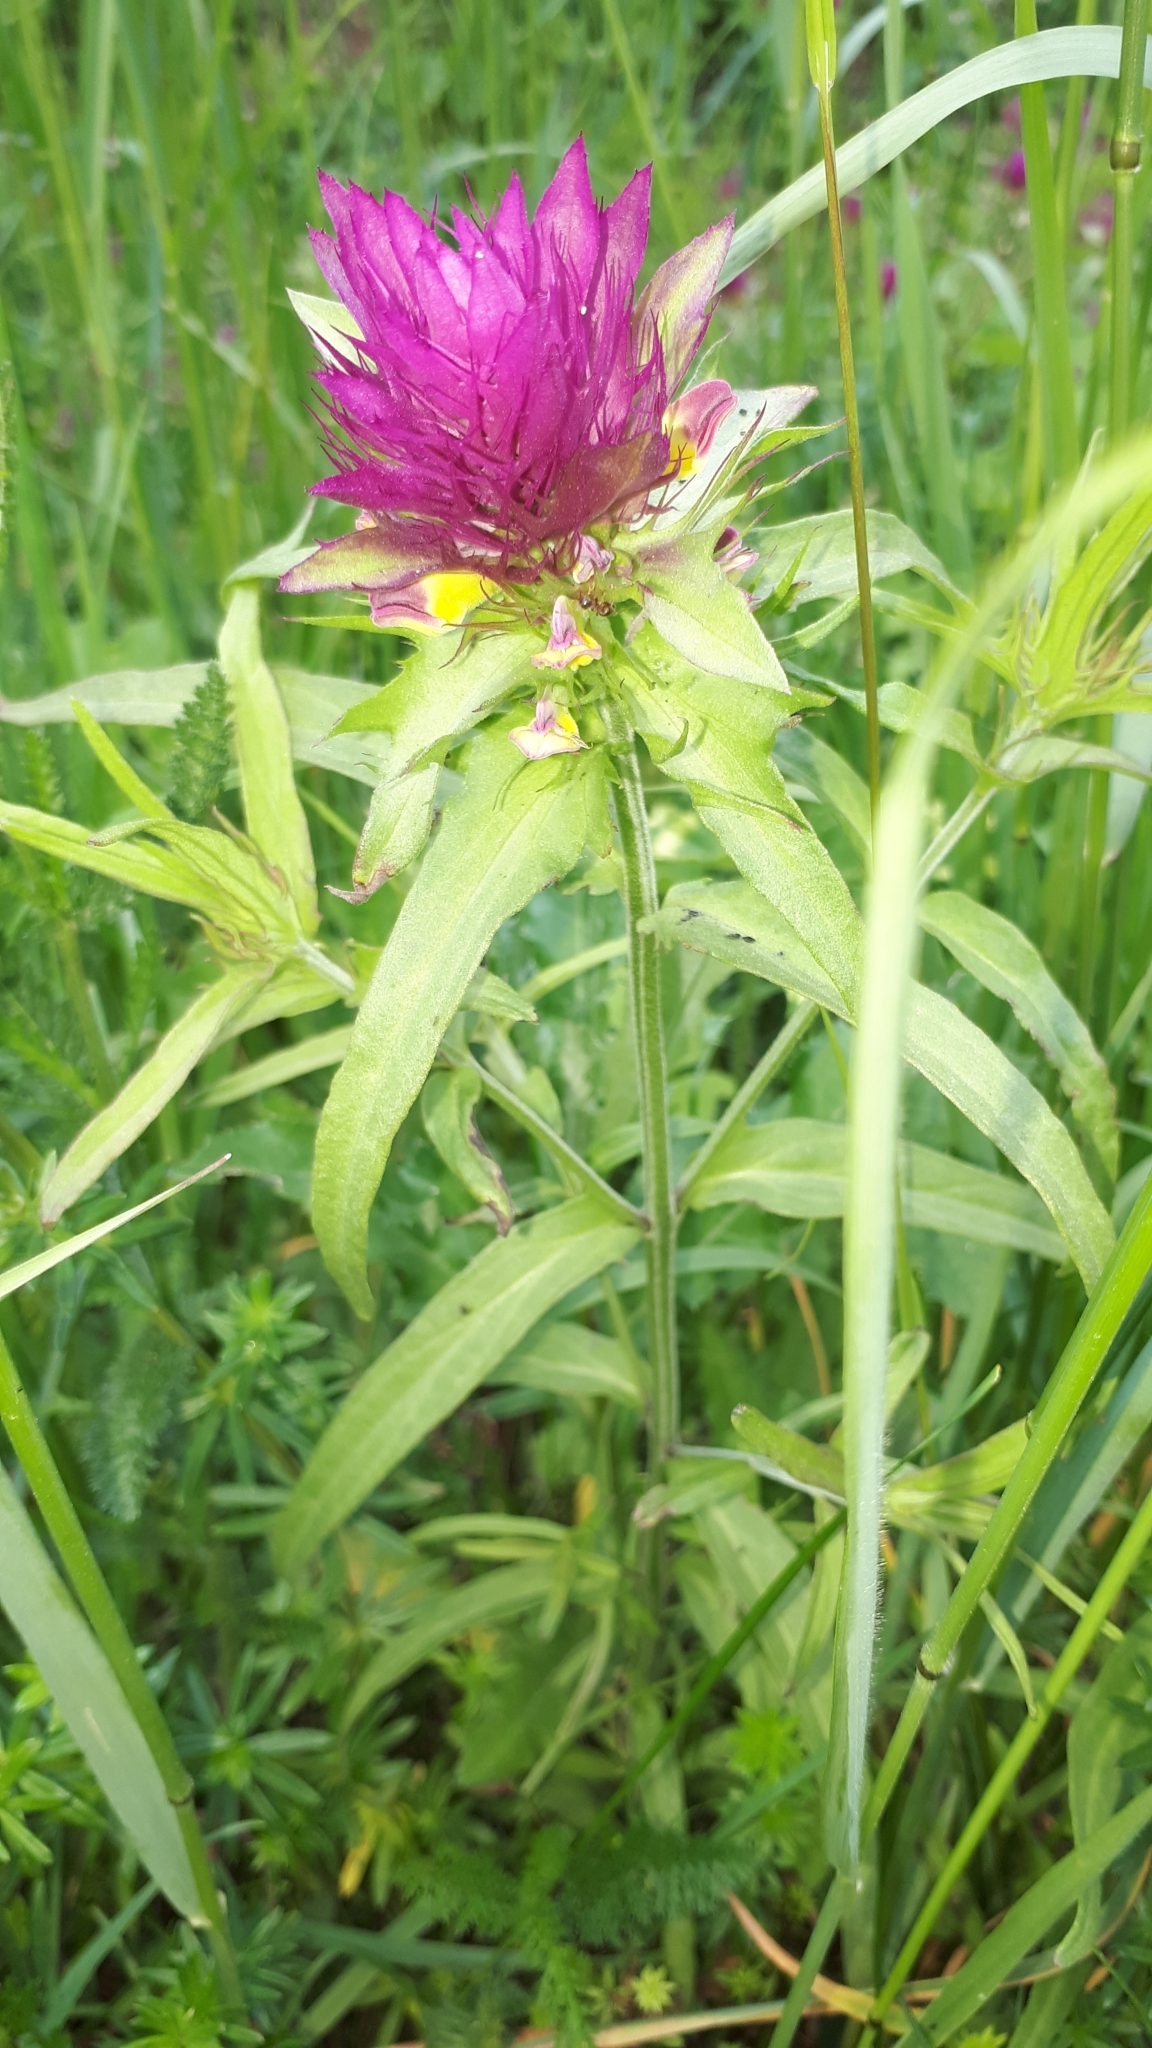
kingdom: Plantae
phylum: Tracheophyta
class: Magnoliopsida
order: Lamiales
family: Orobanchaceae
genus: Melampyrum
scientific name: Melampyrum arvense
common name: Field cow-wheat
